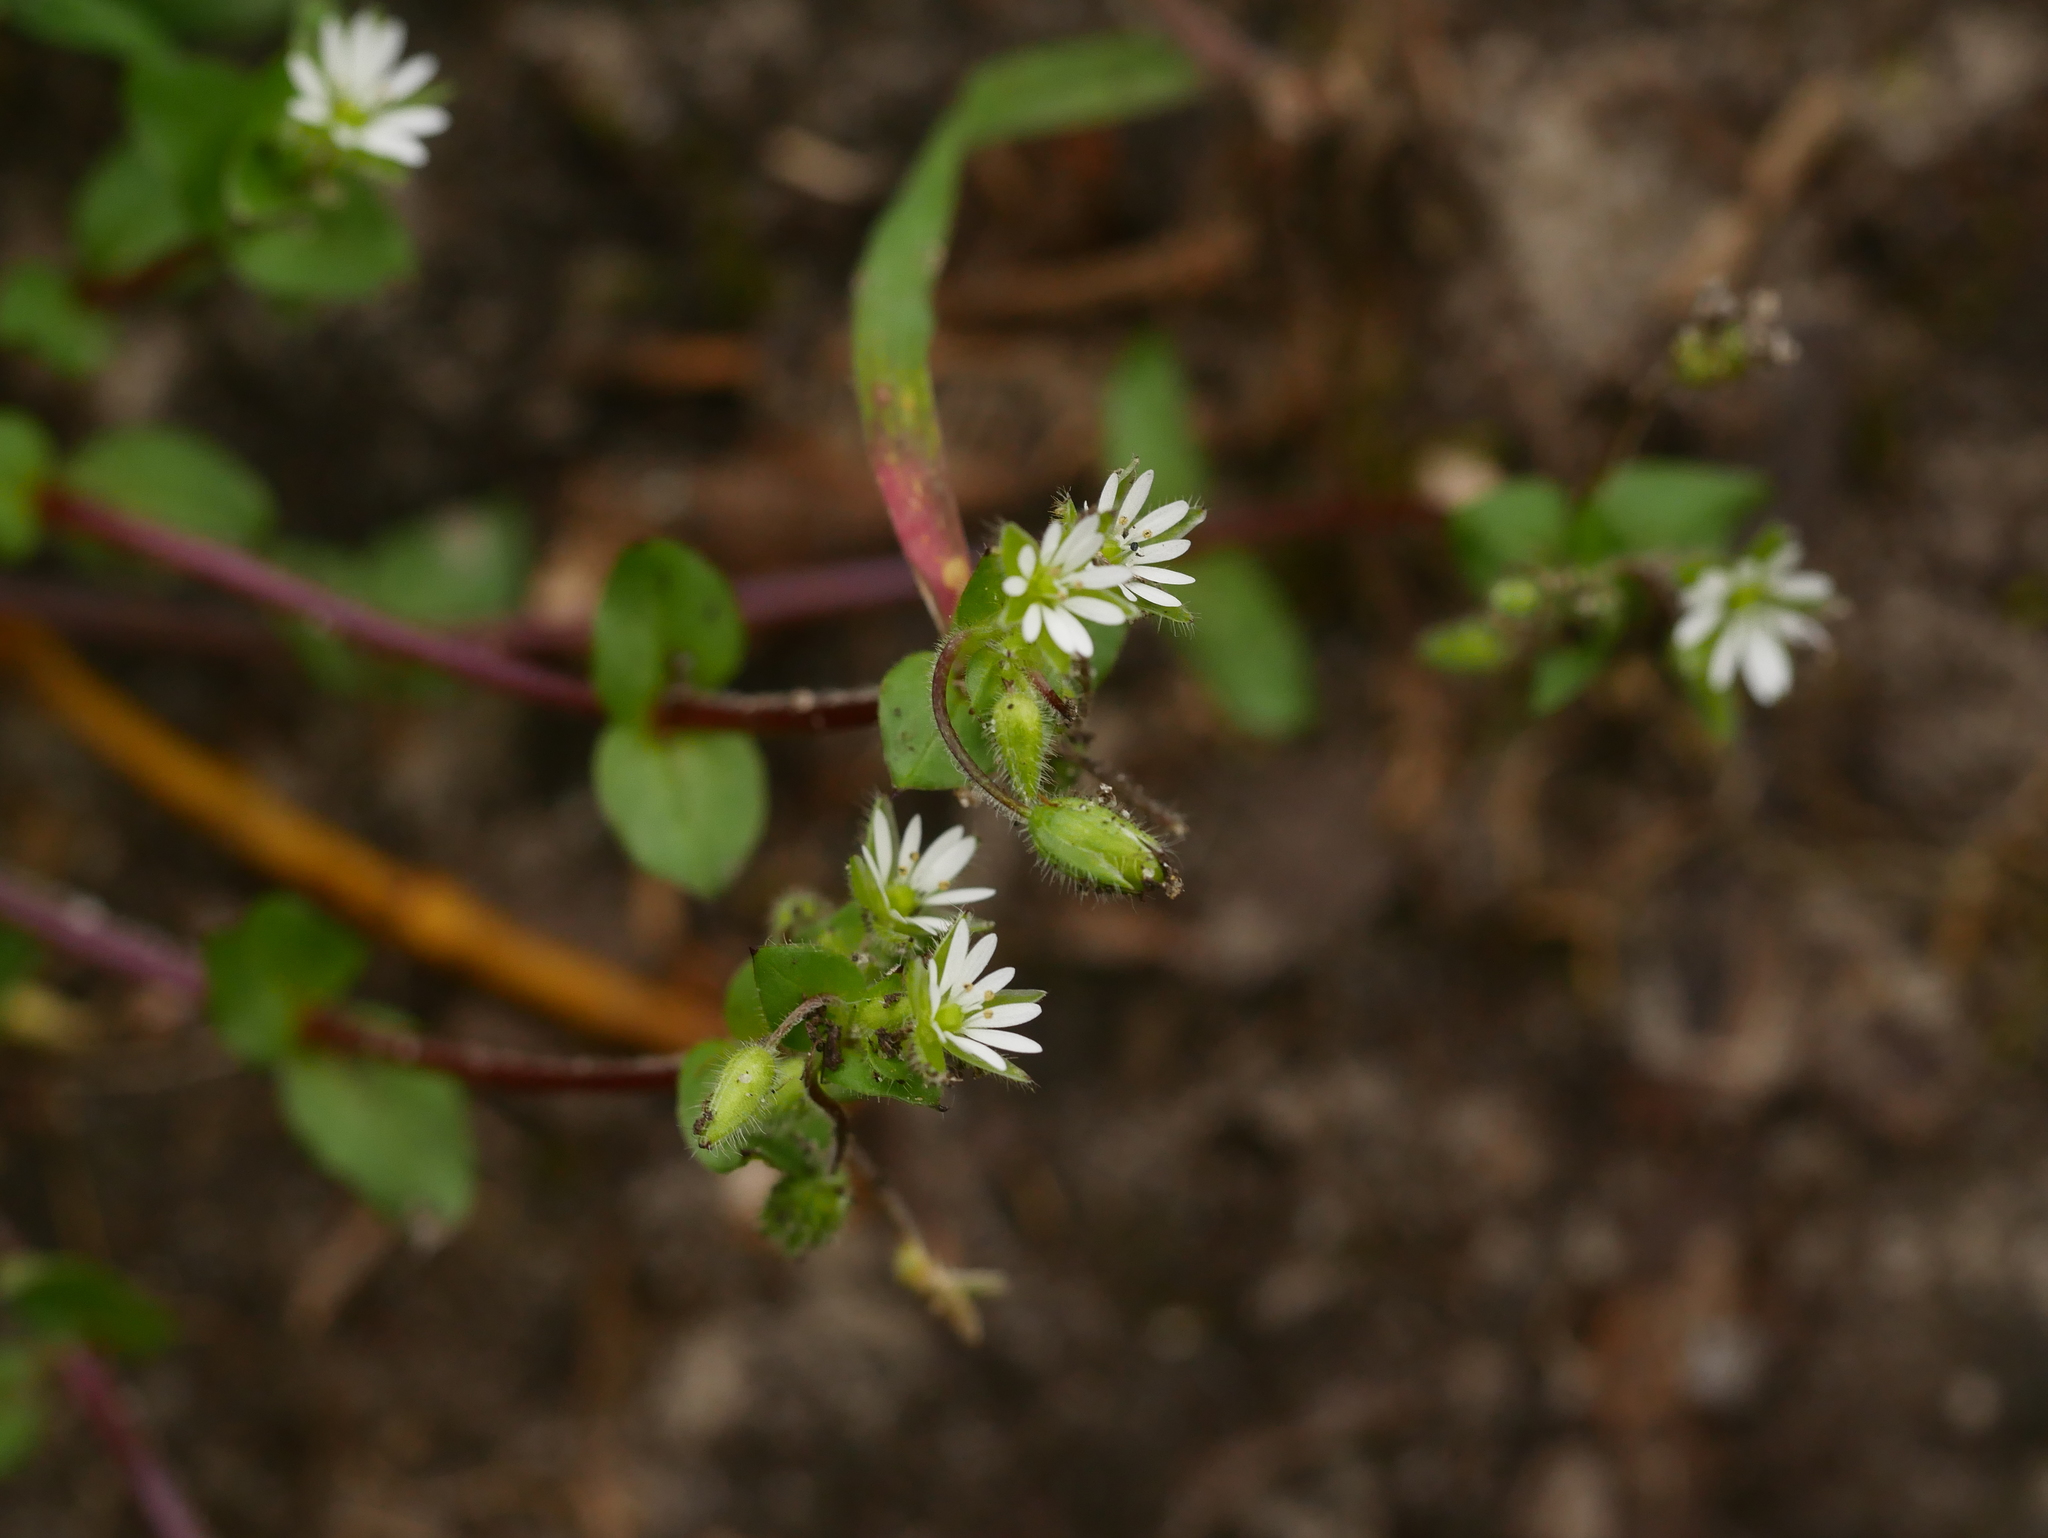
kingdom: Plantae
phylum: Tracheophyta
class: Magnoliopsida
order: Caryophyllales
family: Caryophyllaceae
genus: Stellaria
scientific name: Stellaria media
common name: Common chickweed
